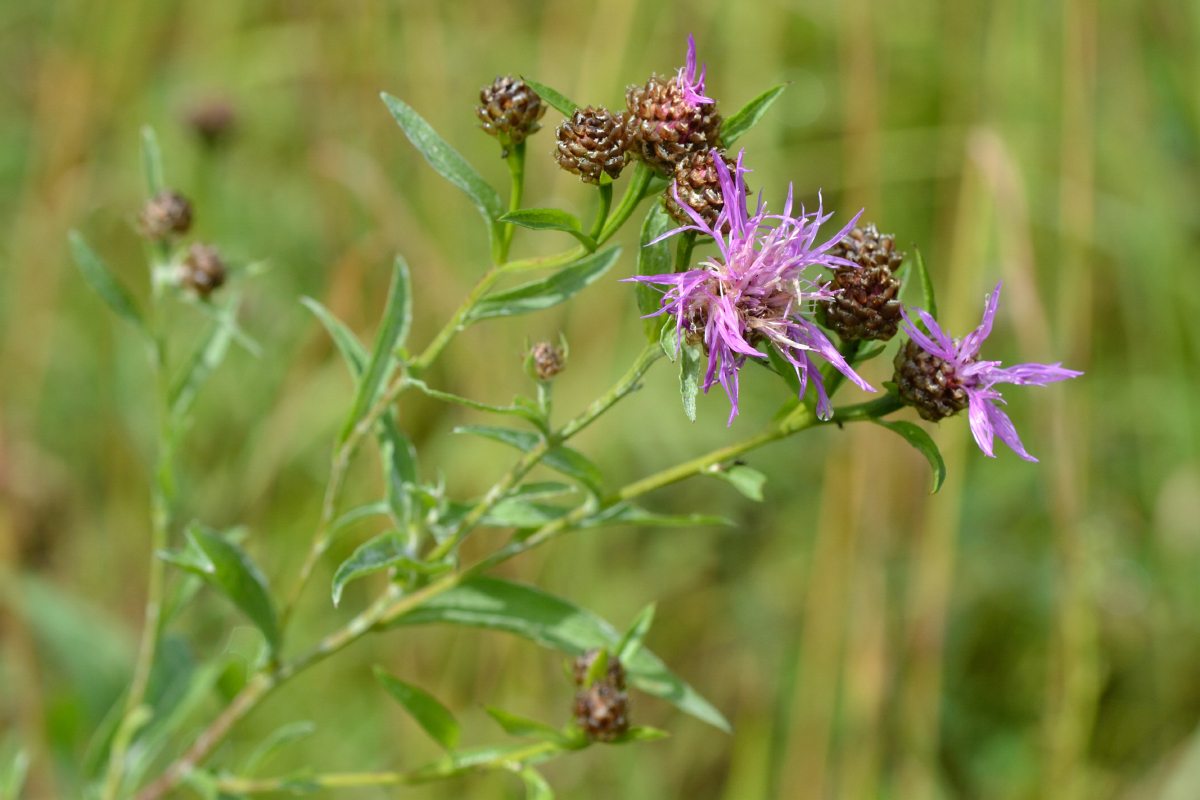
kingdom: Plantae
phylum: Tracheophyta
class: Magnoliopsida
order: Asterales
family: Asteraceae
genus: Centaurea
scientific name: Centaurea jacea
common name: Brown knapweed
